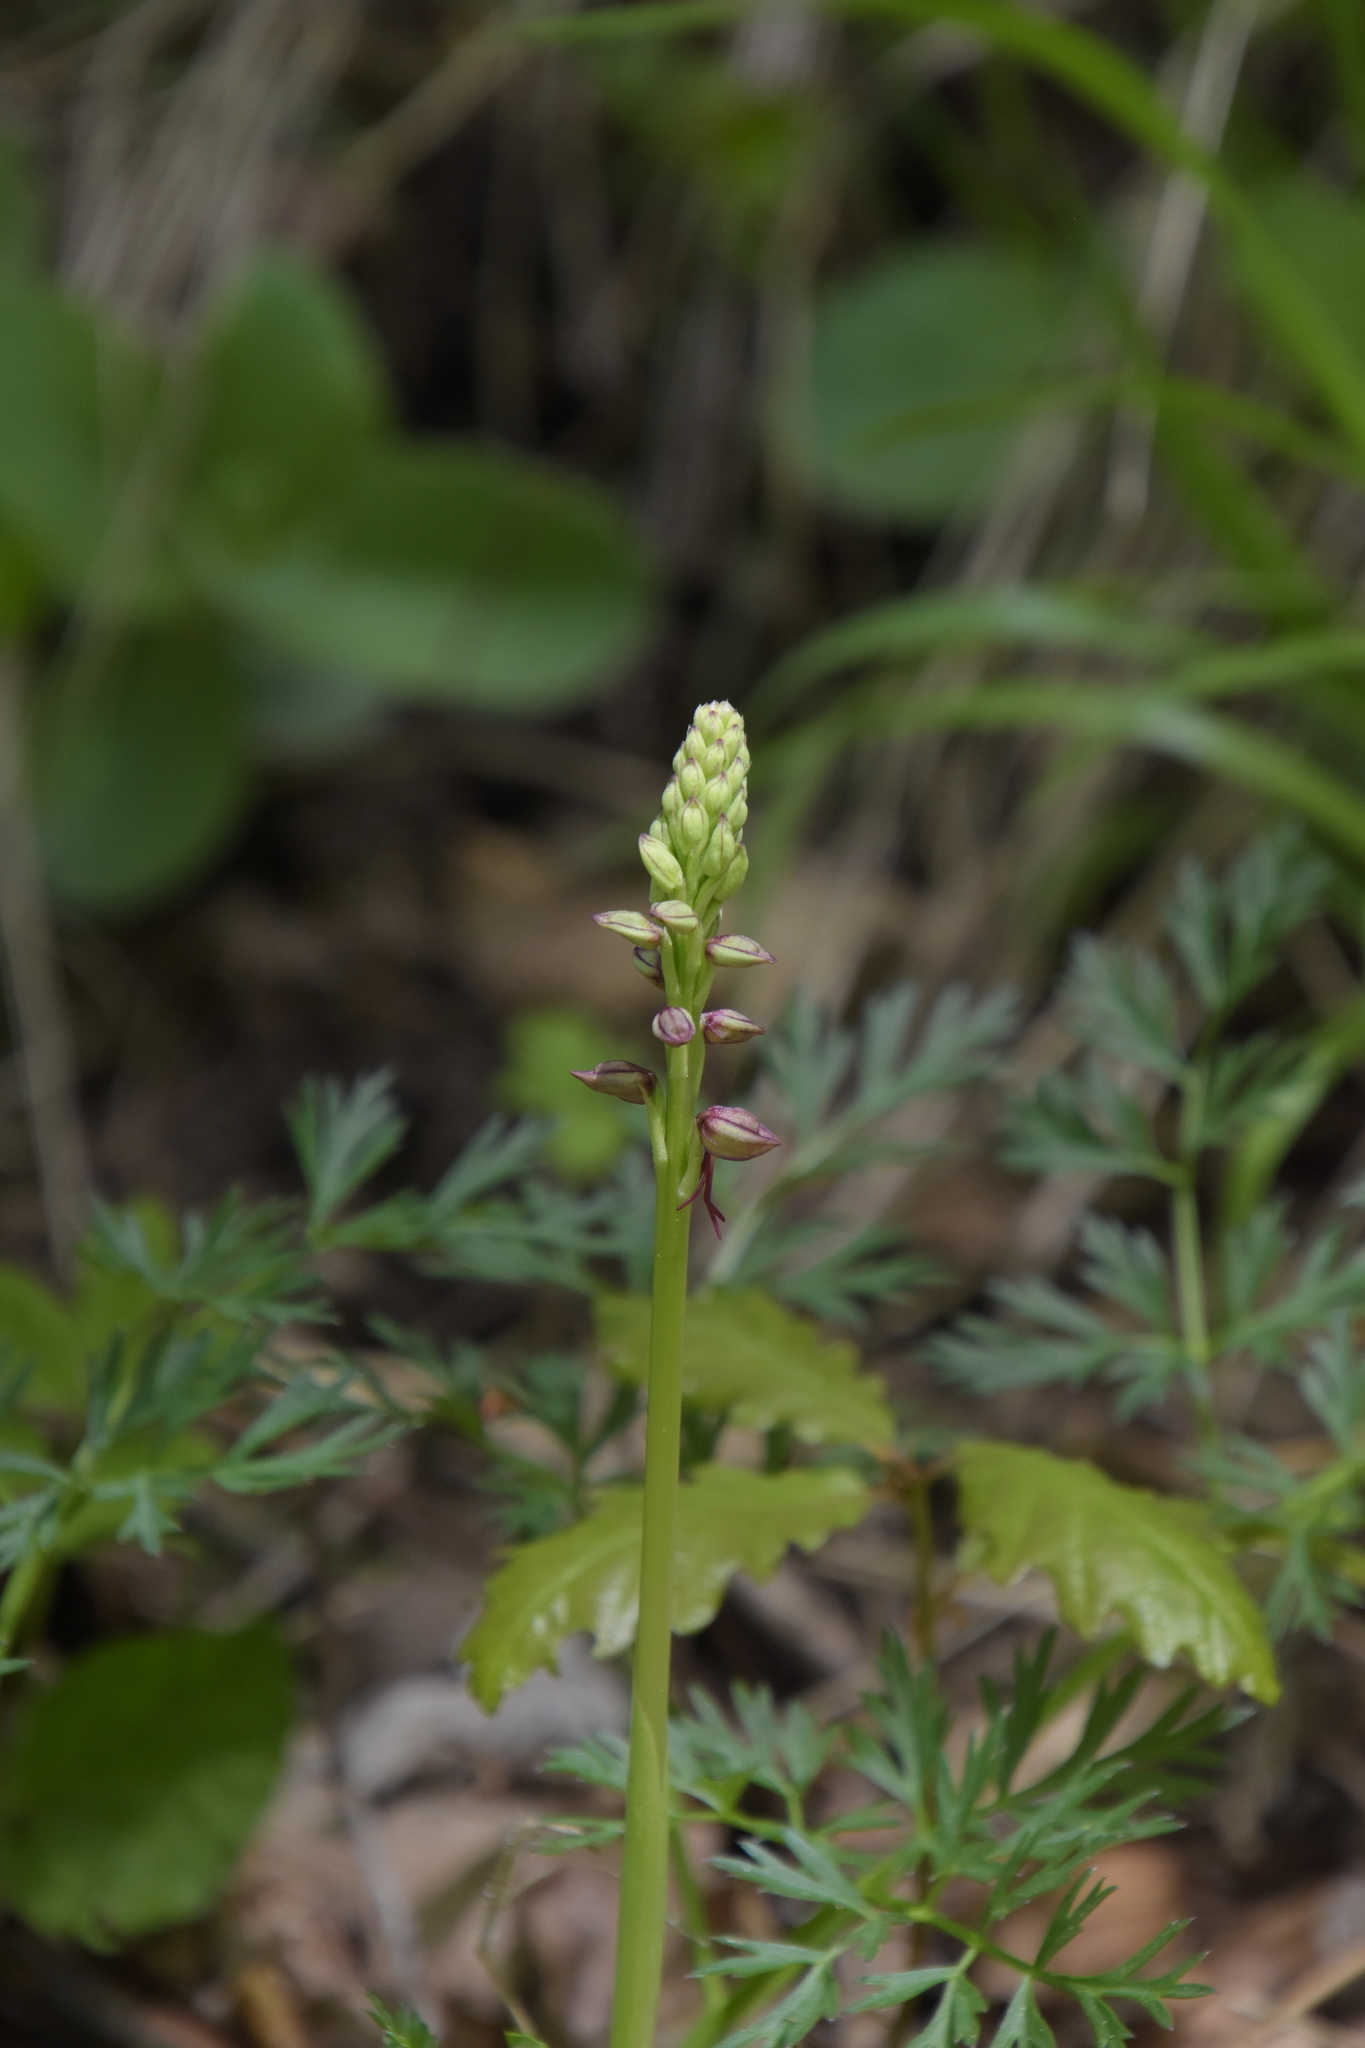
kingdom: Plantae
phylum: Tracheophyta
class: Liliopsida
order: Asparagales
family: Orchidaceae
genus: Orchis
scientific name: Orchis anthropophora
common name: Man orchid
